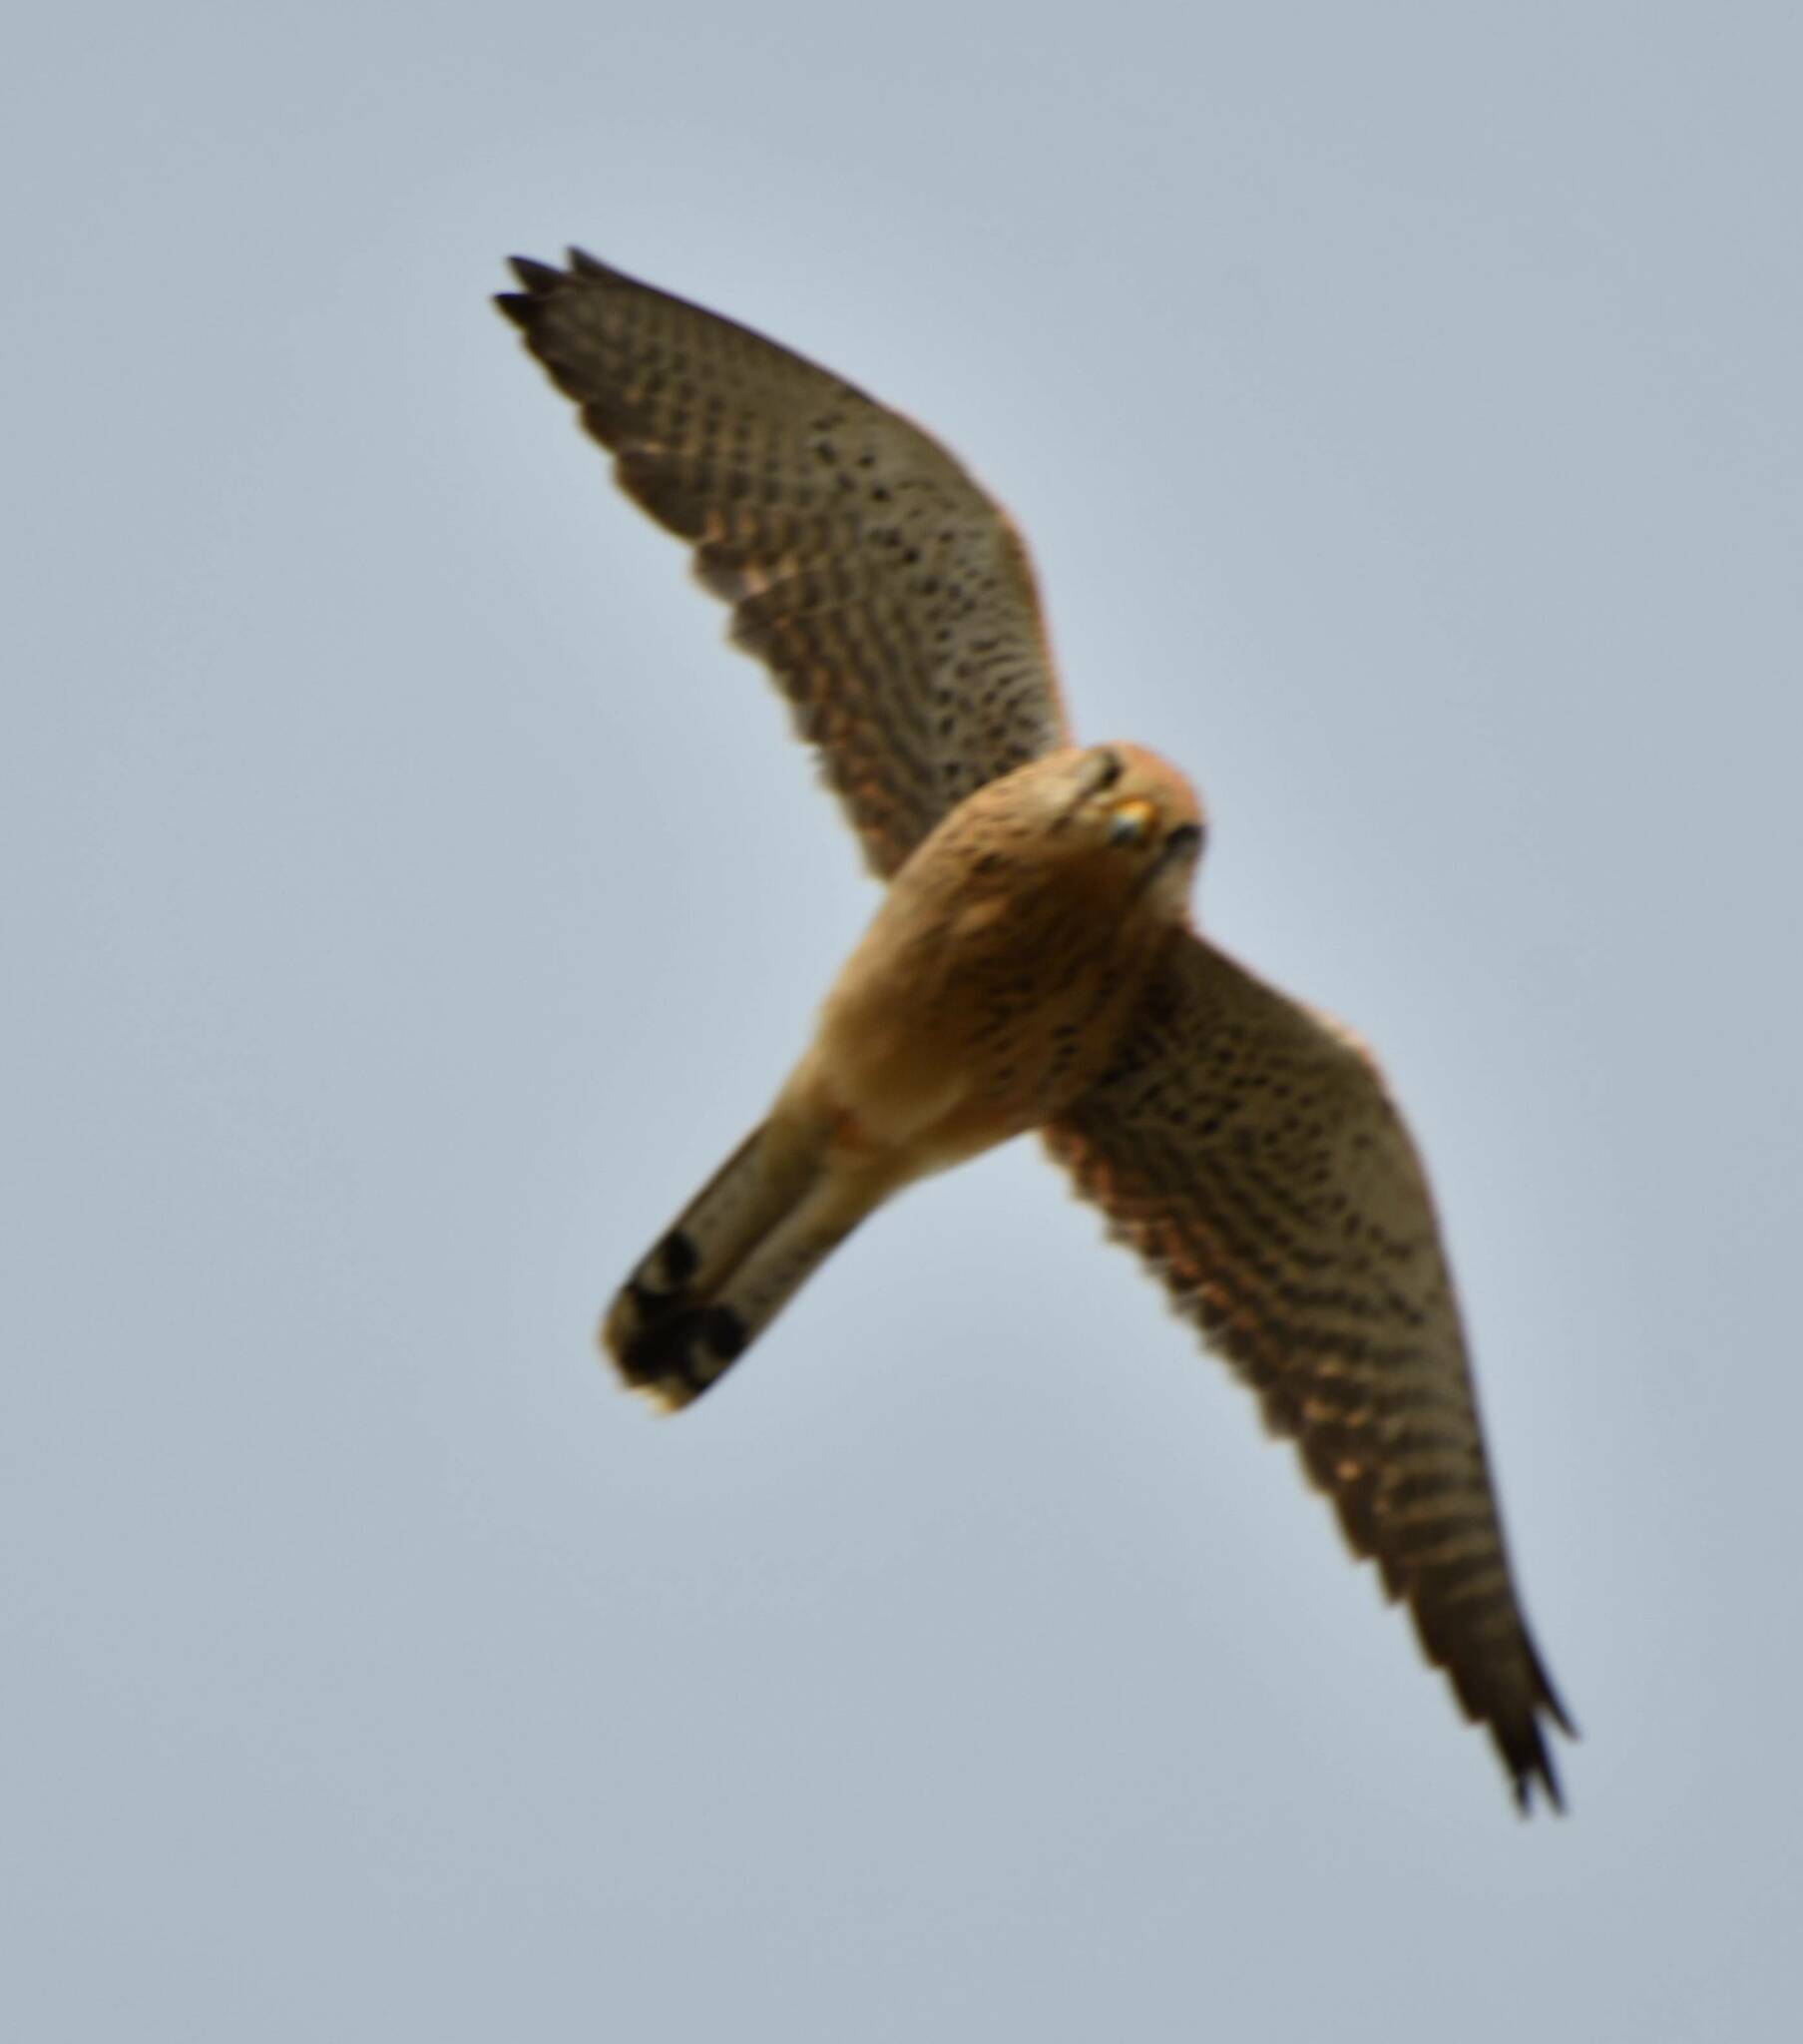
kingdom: Animalia
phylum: Chordata
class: Aves
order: Falconiformes
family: Falconidae
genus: Falco
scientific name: Falco tinnunculus
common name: Common kestrel
